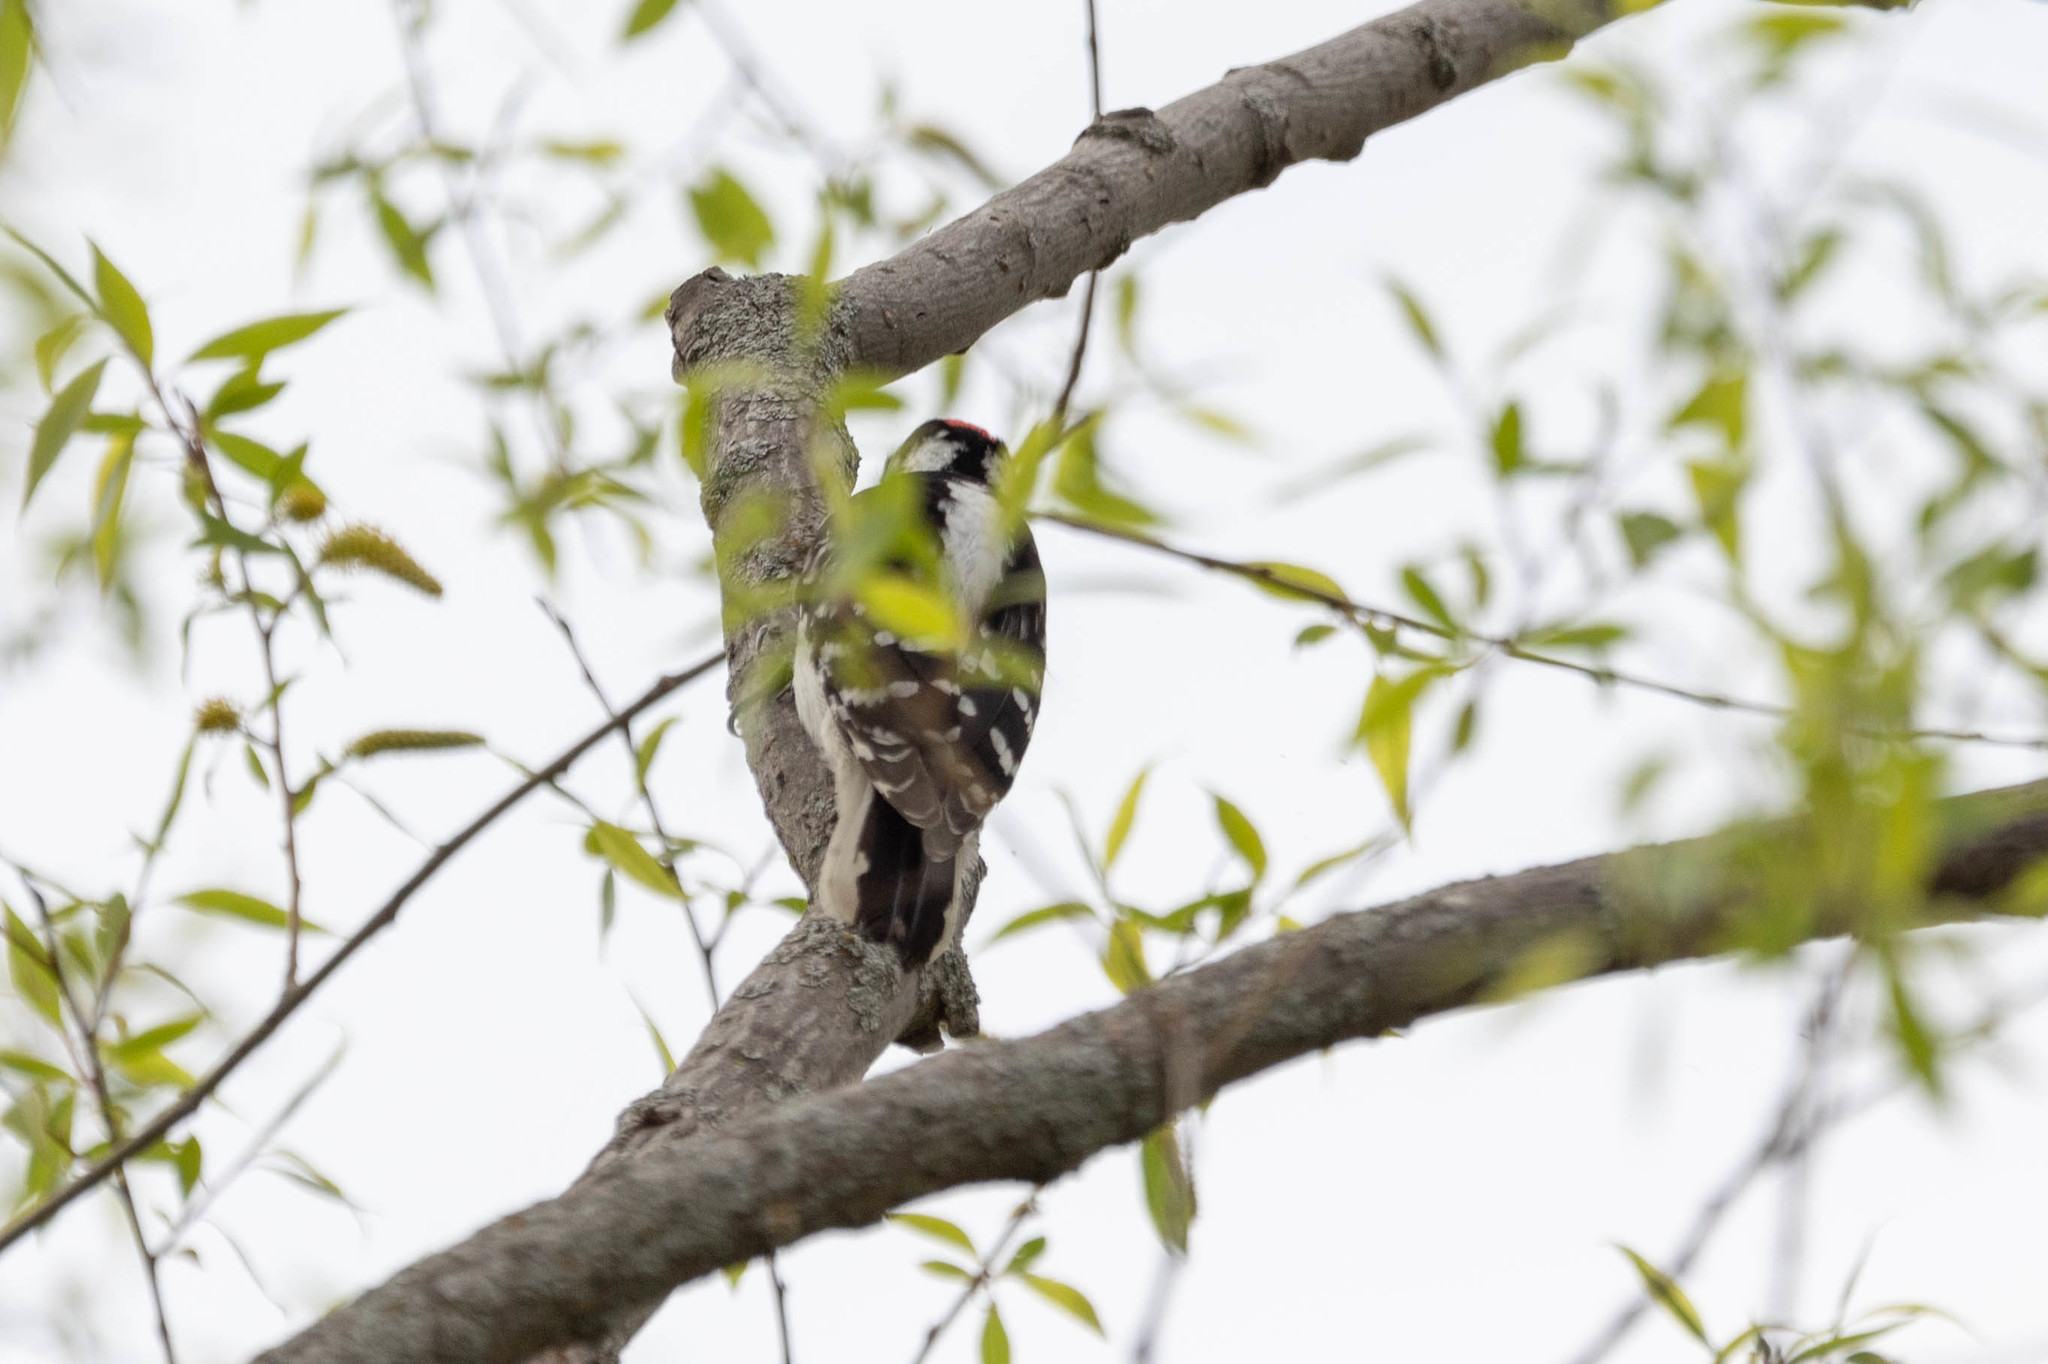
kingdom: Animalia
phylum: Chordata
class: Aves
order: Piciformes
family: Picidae
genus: Dryobates
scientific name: Dryobates pubescens
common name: Downy woodpecker
